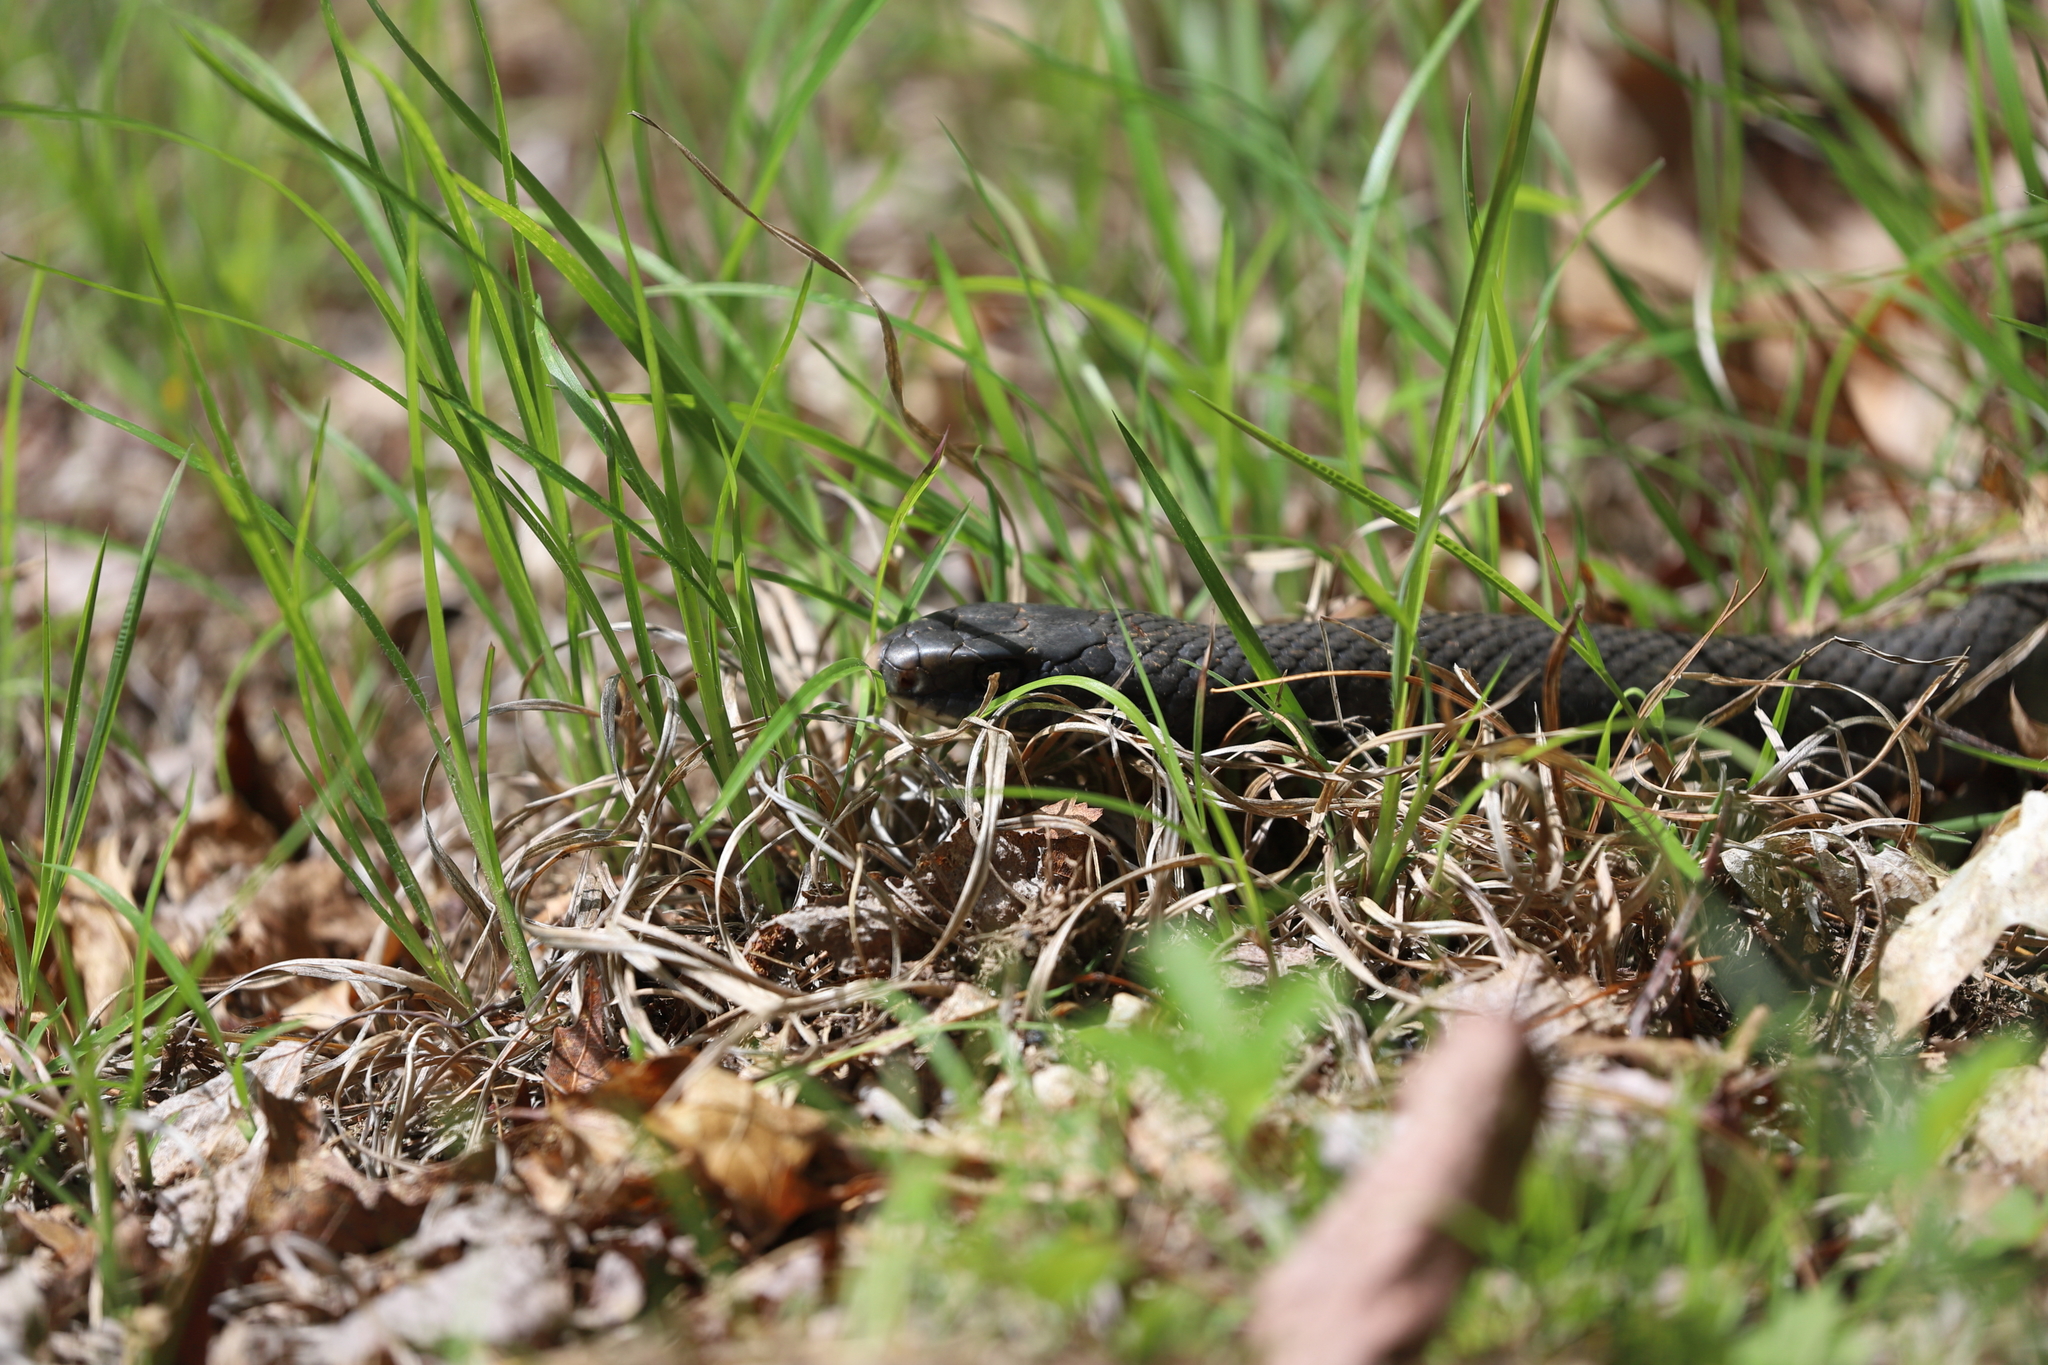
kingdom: Animalia
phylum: Chordata
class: Squamata
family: Colubridae
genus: Coluber
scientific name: Coluber constrictor
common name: Eastern racer
